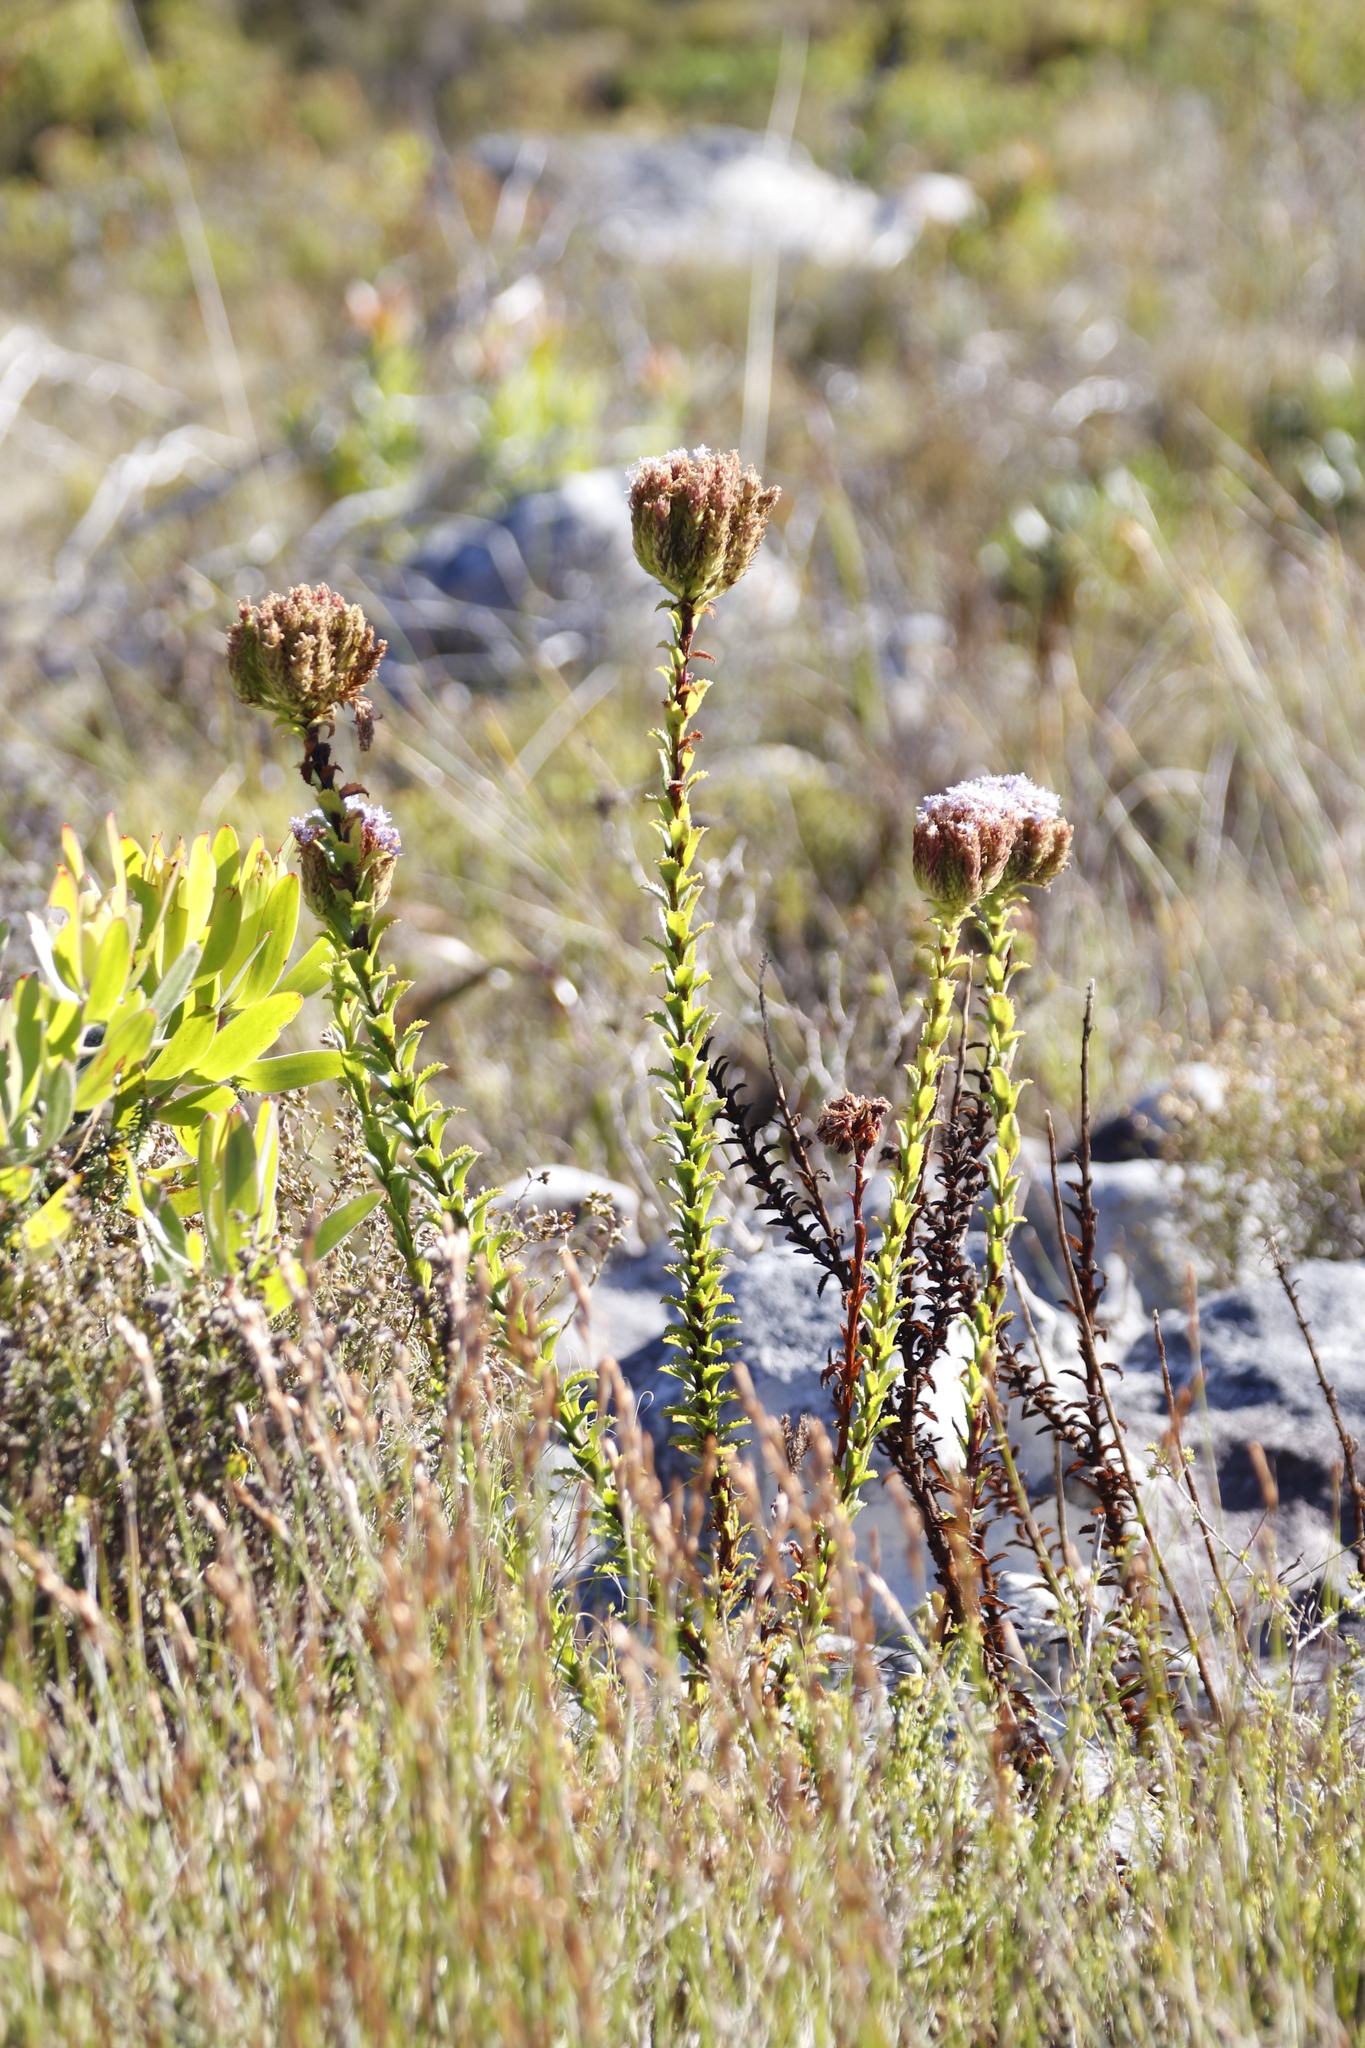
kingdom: Plantae
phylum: Tracheophyta
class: Magnoliopsida
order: Lamiales
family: Scrophulariaceae
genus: Pseudoselago
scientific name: Pseudoselago serrata
